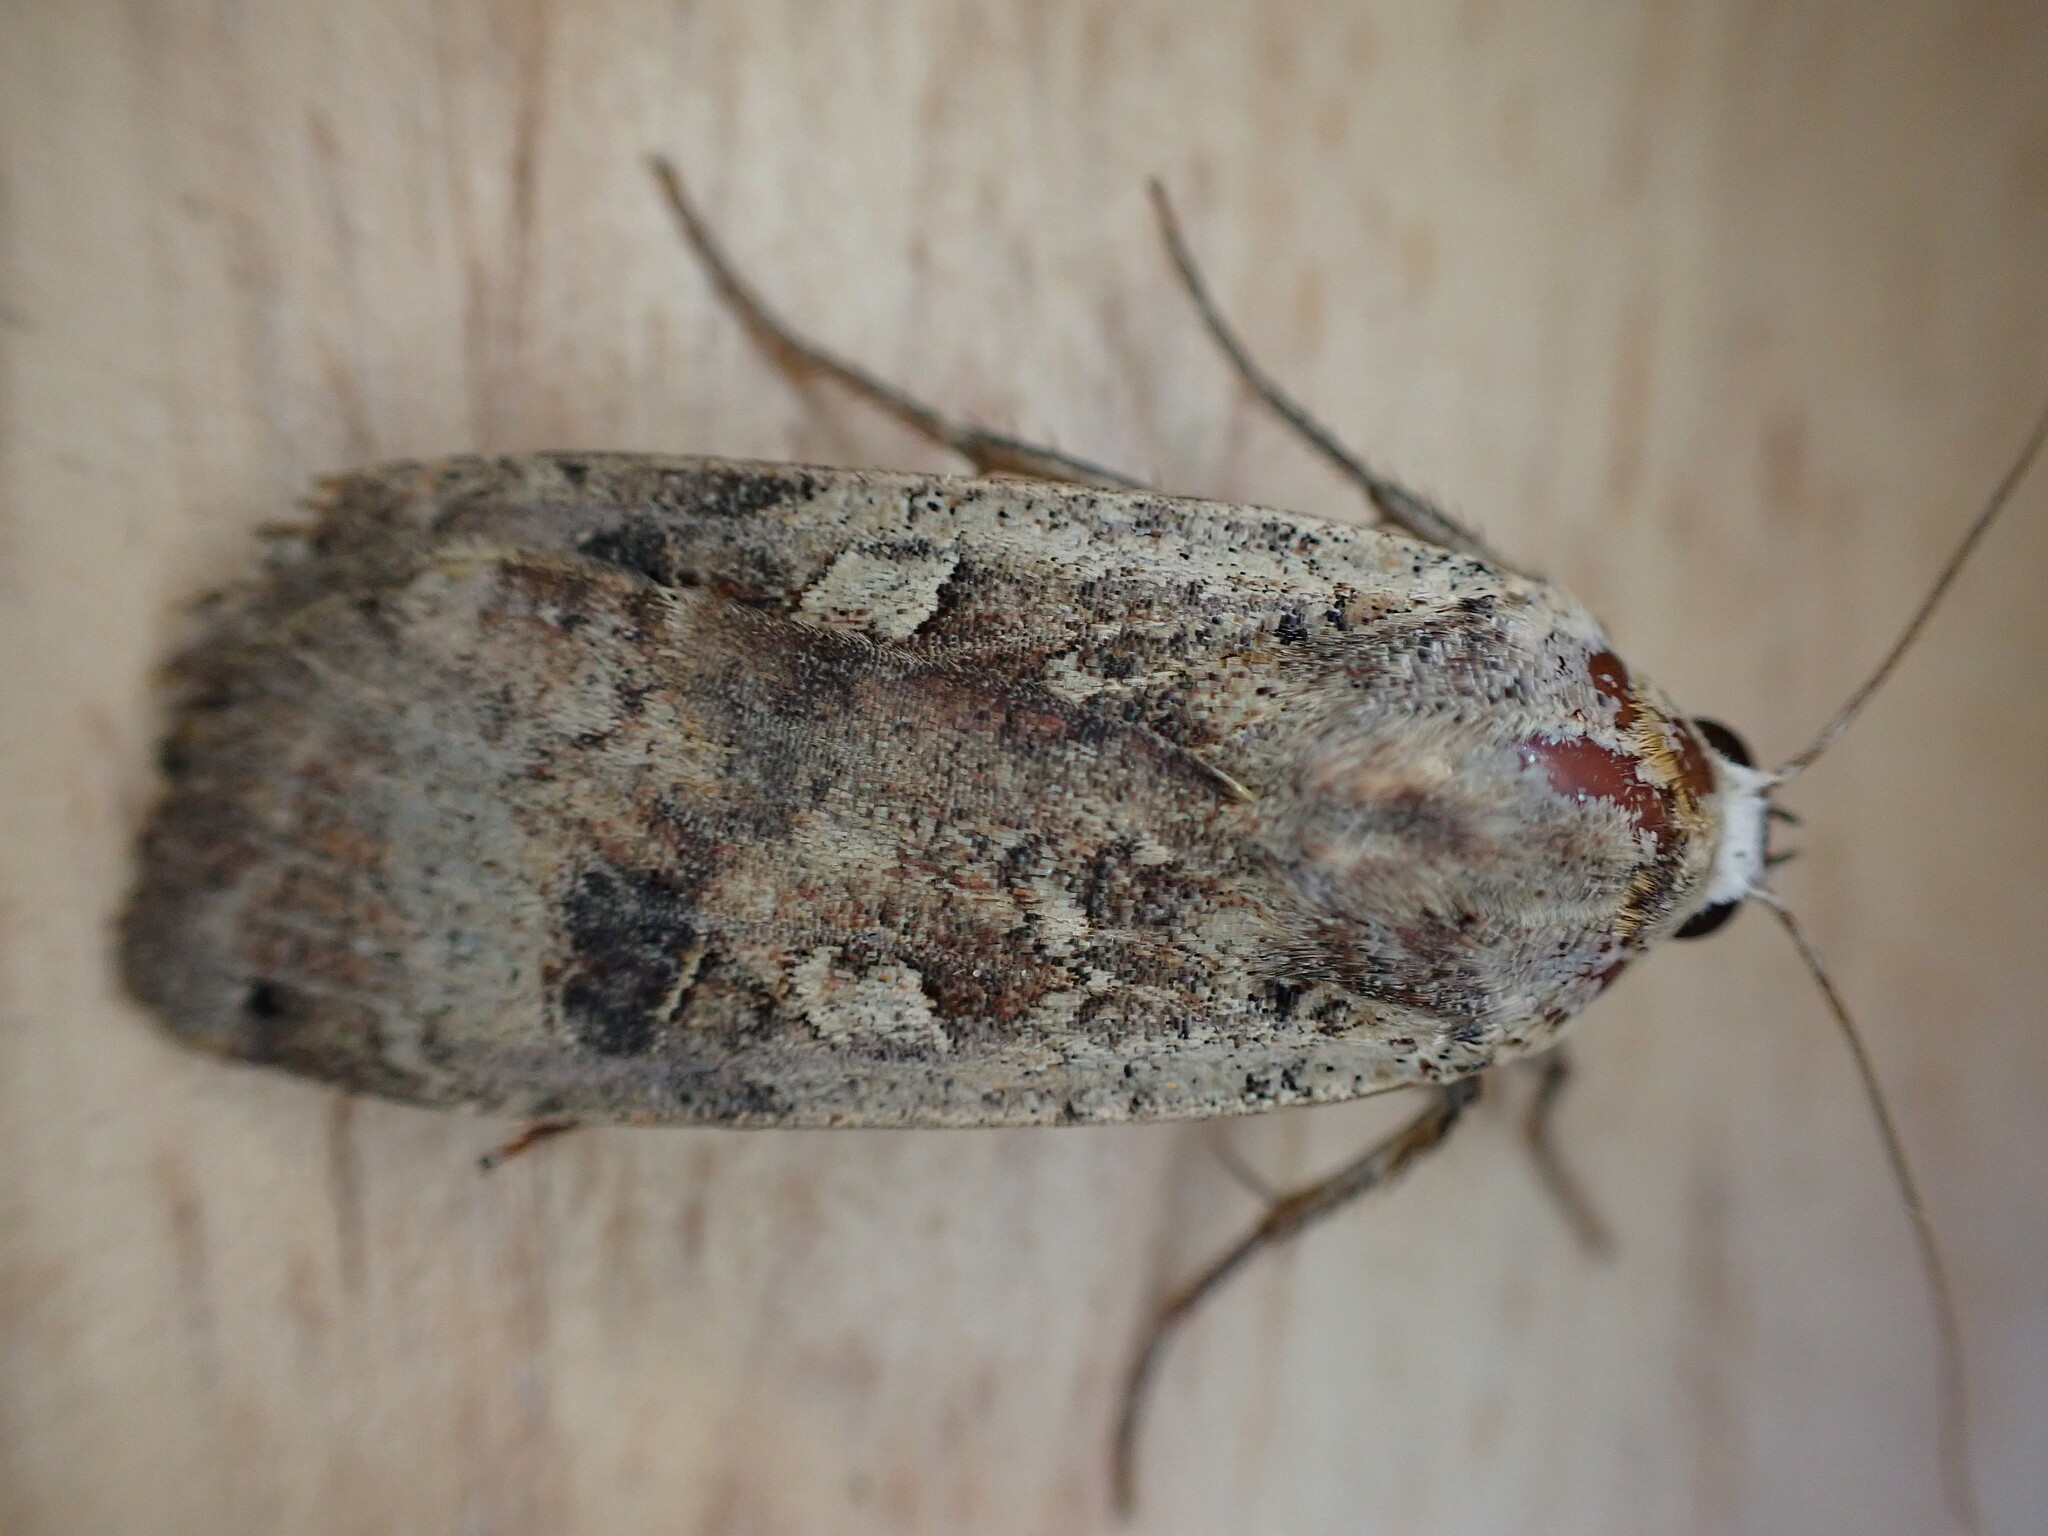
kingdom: Animalia
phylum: Arthropoda
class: Insecta
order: Lepidoptera
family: Noctuidae
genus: Noctua
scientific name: Noctua pronuba
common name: Large yellow underwing
